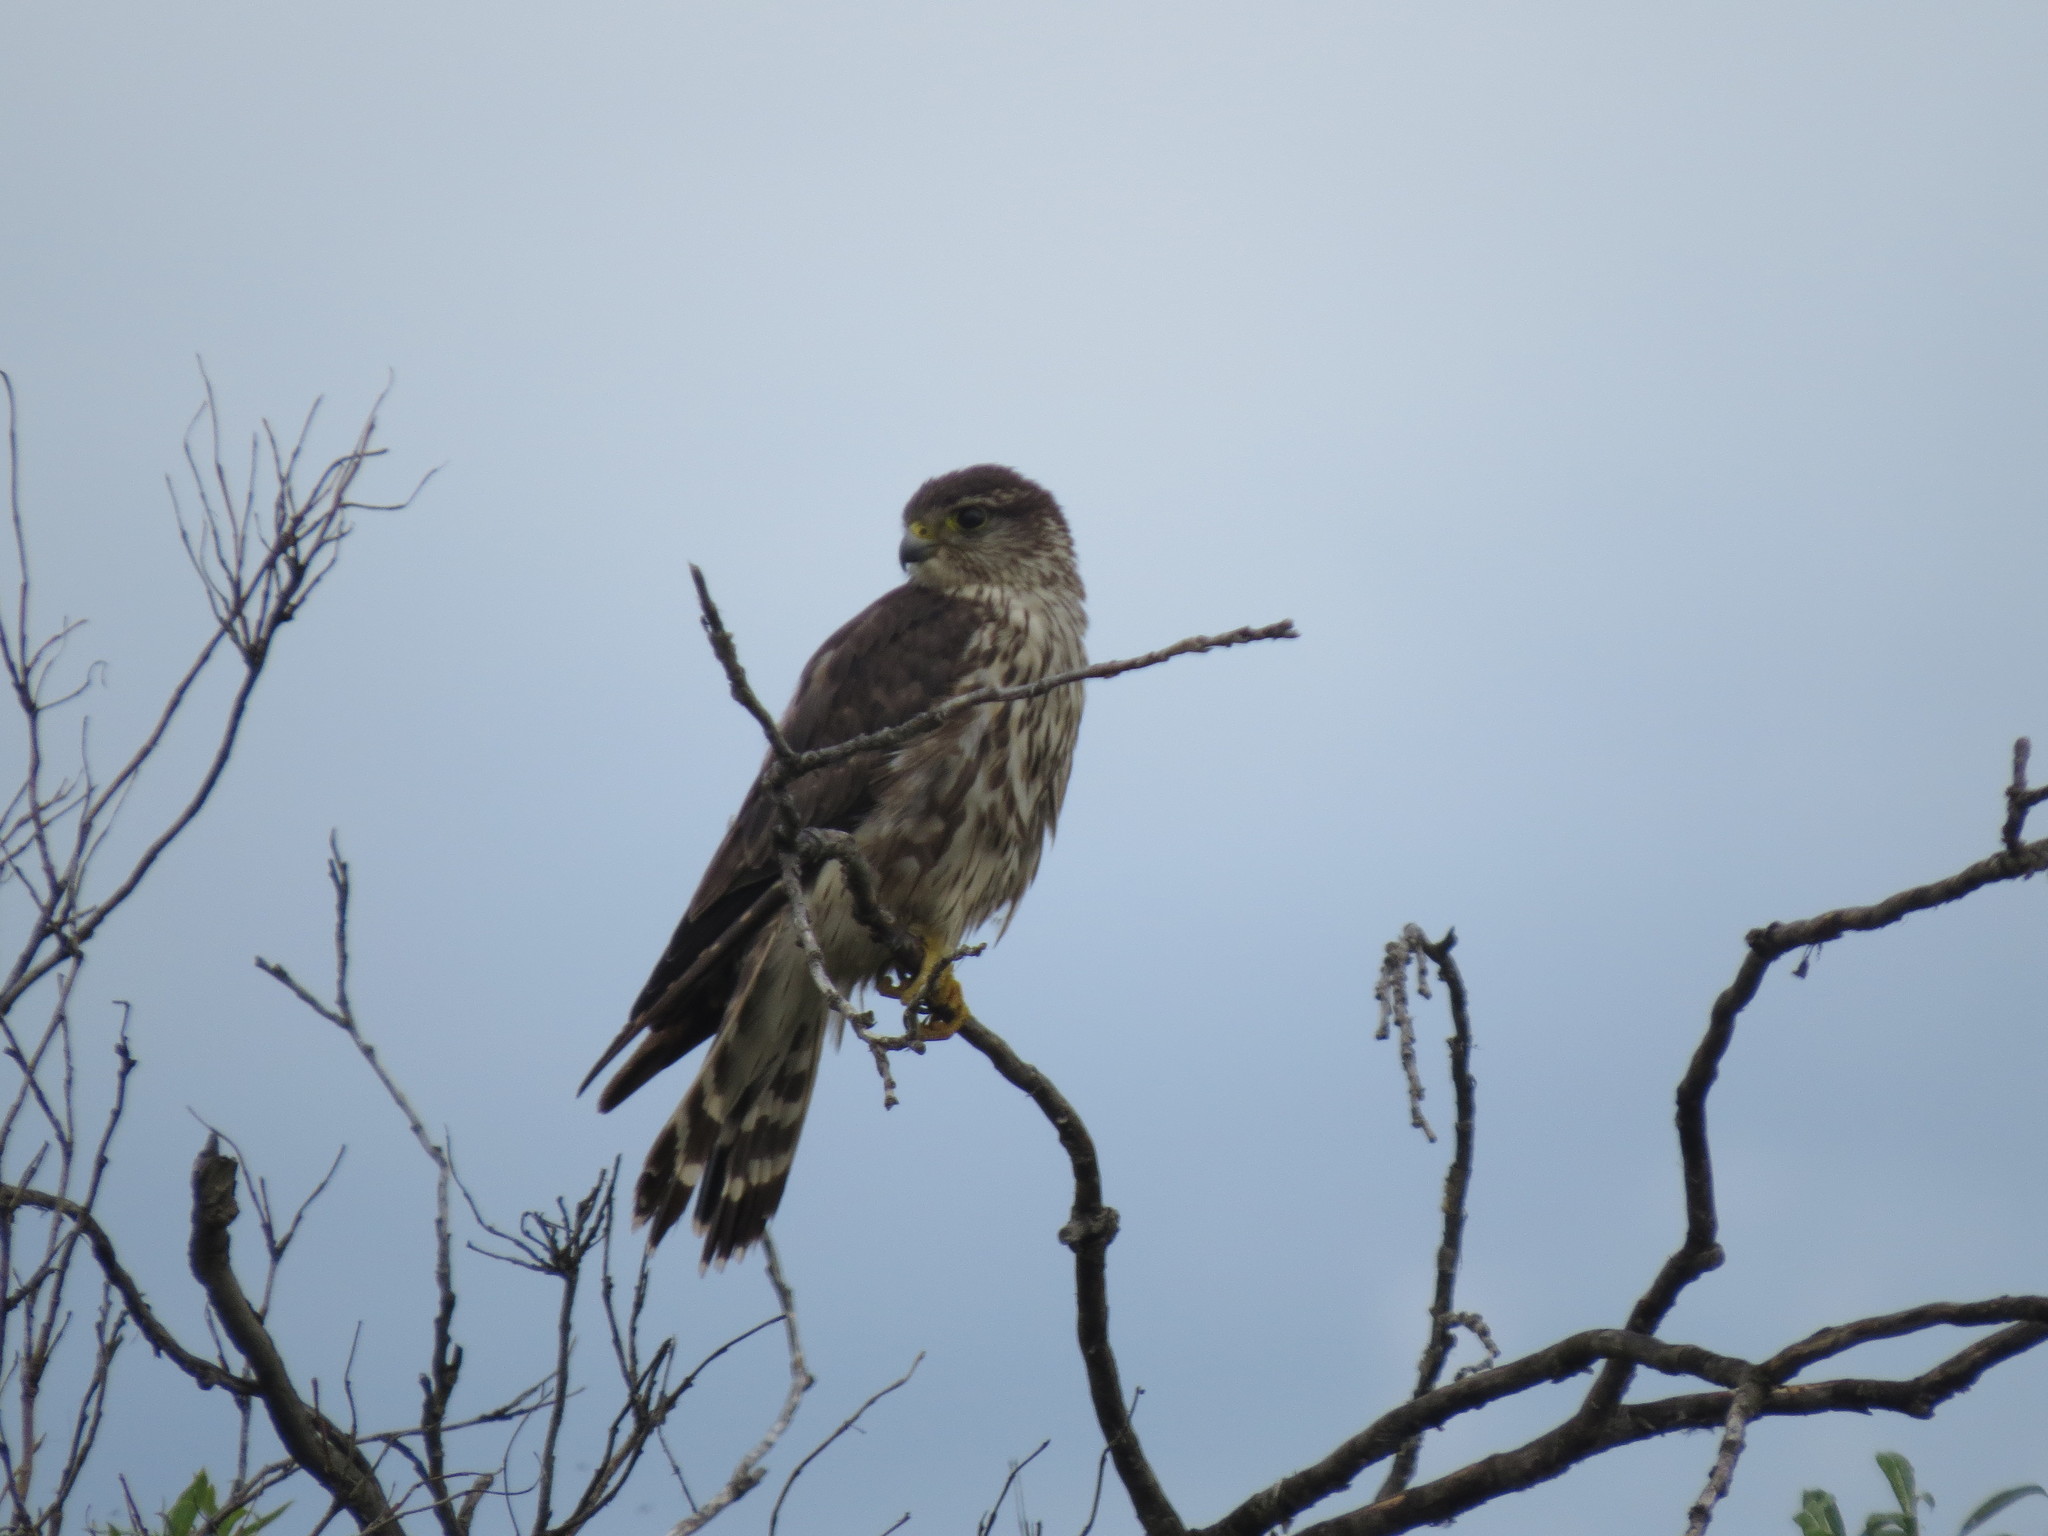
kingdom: Animalia
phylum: Chordata
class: Aves
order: Falconiformes
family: Falconidae
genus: Falco
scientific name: Falco columbarius
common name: Merlin
